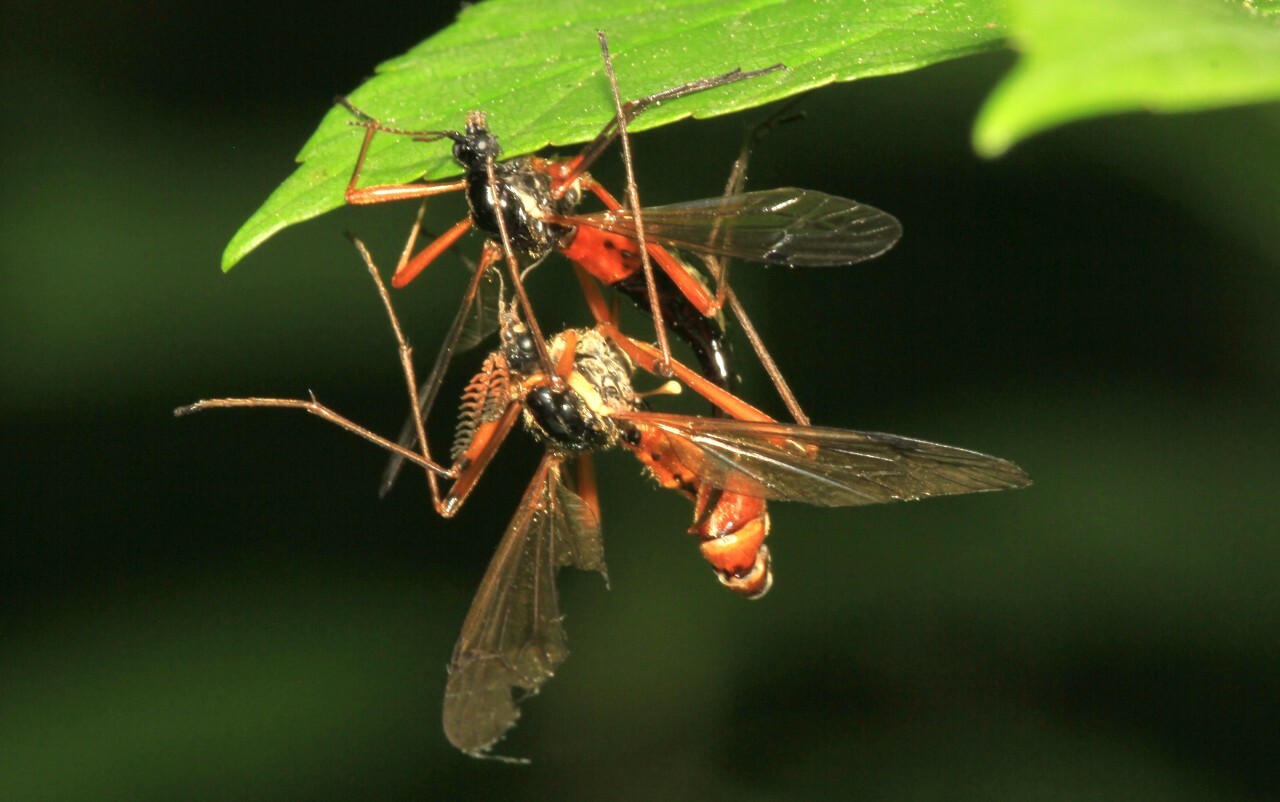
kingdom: Animalia
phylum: Arthropoda
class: Insecta
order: Diptera
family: Tipulidae
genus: Tanyptera
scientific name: Tanyptera atrata
